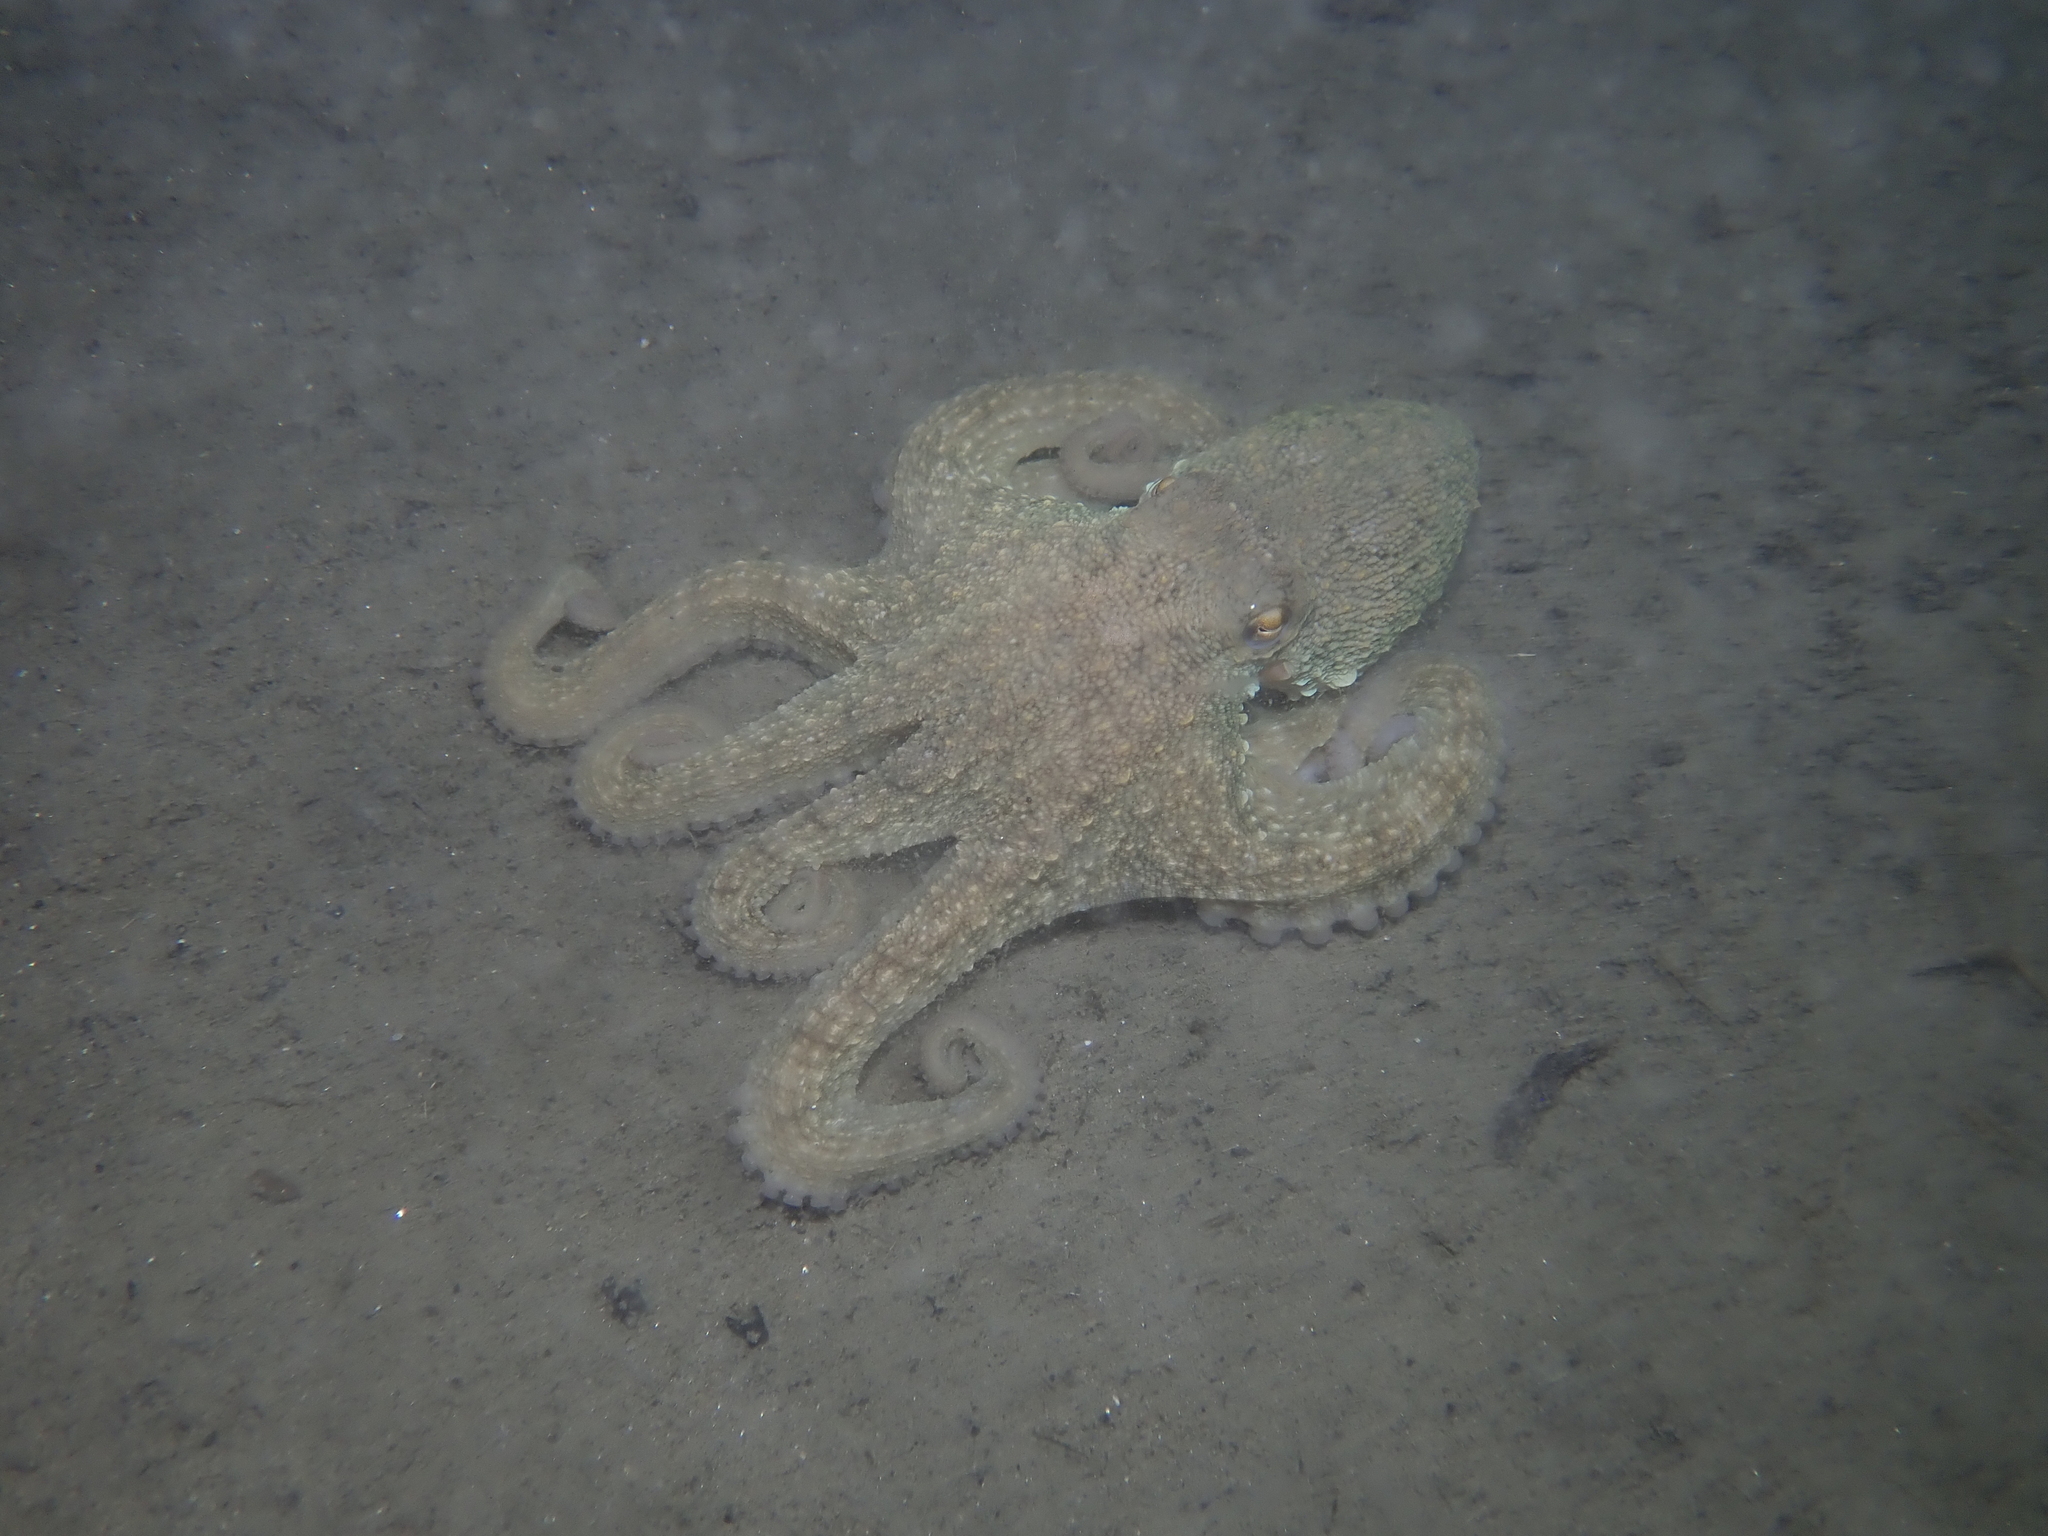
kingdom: Animalia
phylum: Mollusca
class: Cephalopoda
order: Octopoda
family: Octopodidae
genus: Octopus
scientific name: Octopus vulgaris
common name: Common octopus
